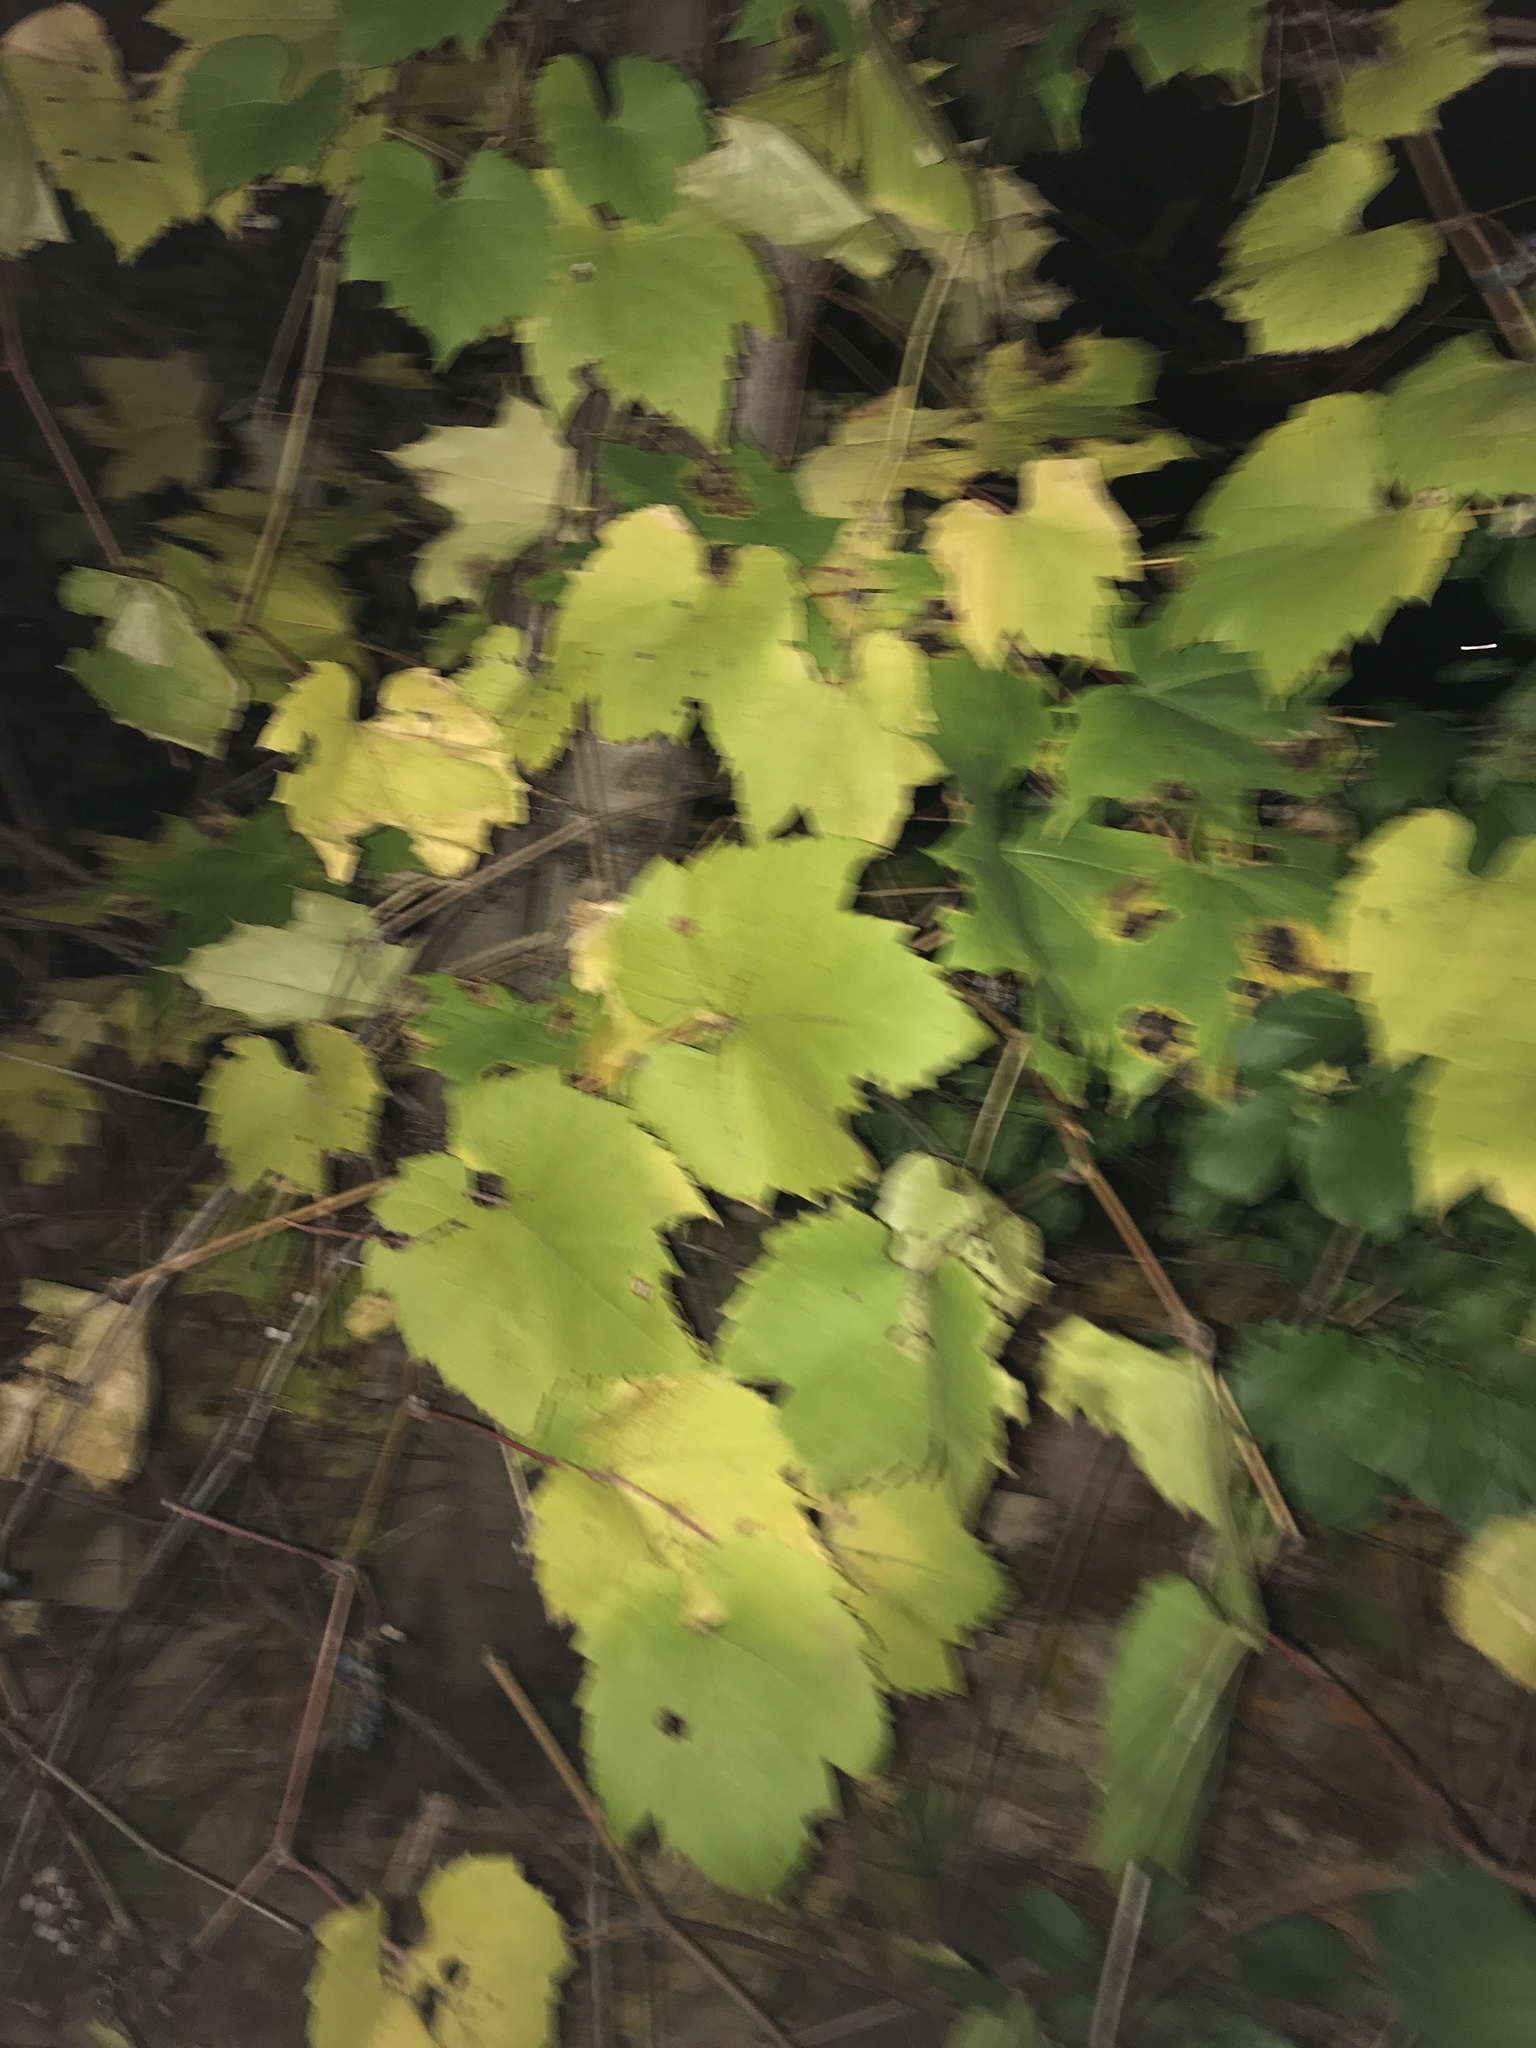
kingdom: Plantae
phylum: Tracheophyta
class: Magnoliopsida
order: Vitales
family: Vitaceae
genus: Vitis
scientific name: Vitis riparia
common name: Frost grape
